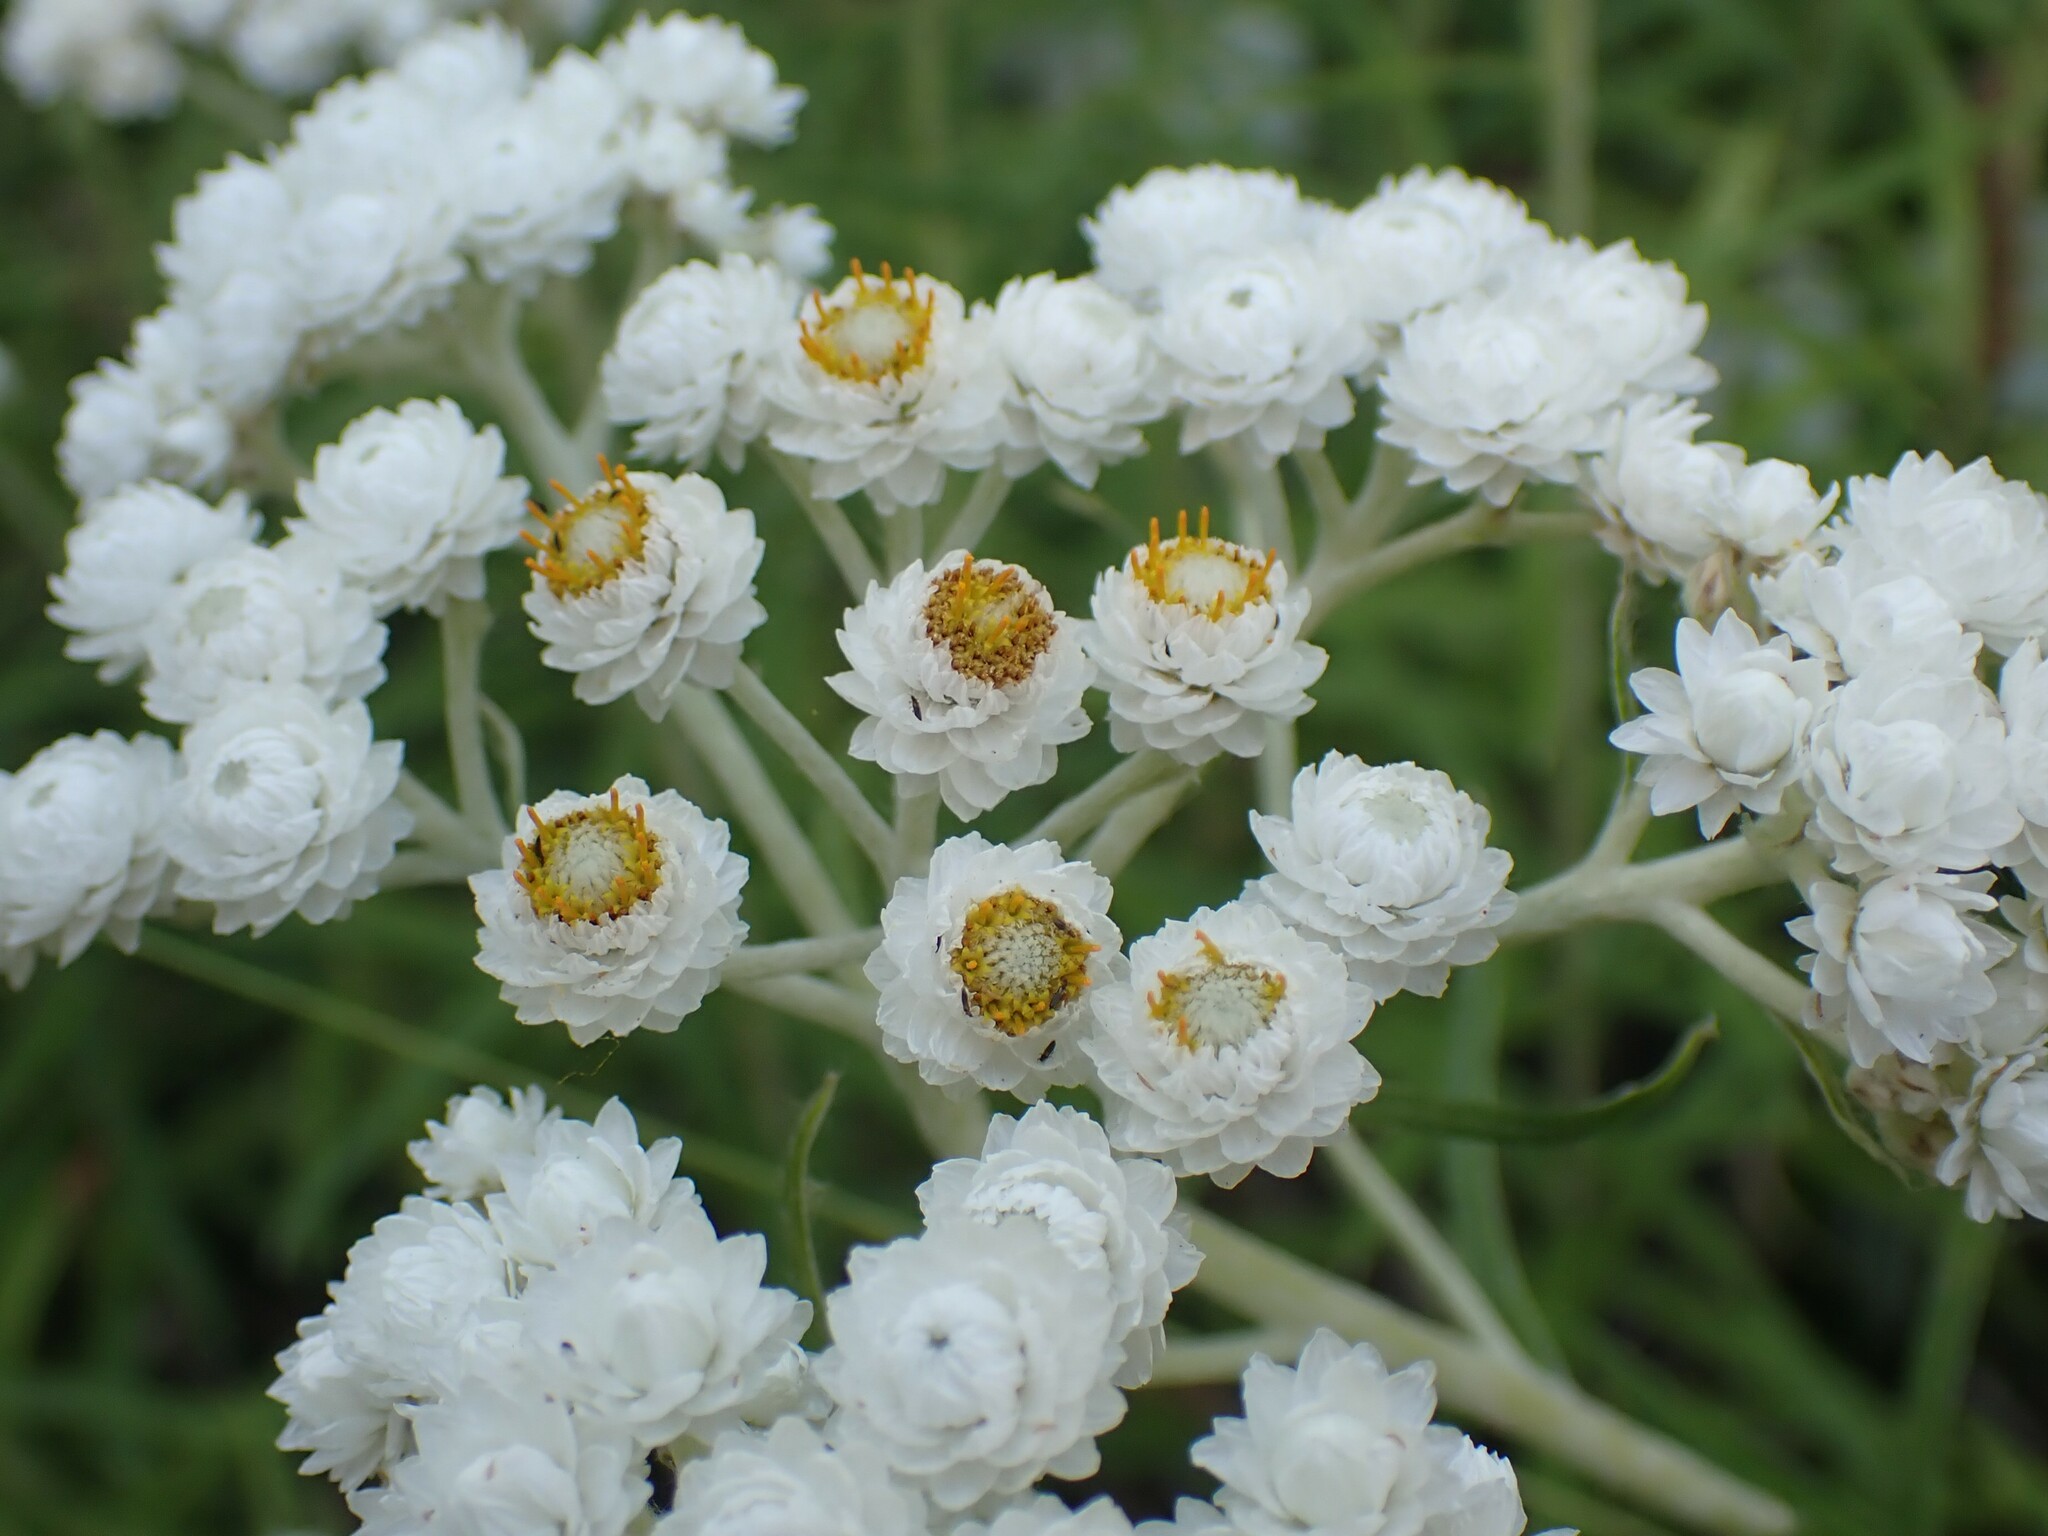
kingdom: Plantae
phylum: Tracheophyta
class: Magnoliopsida
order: Asterales
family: Asteraceae
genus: Anaphalis
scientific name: Anaphalis margaritacea
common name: Pearly everlasting
